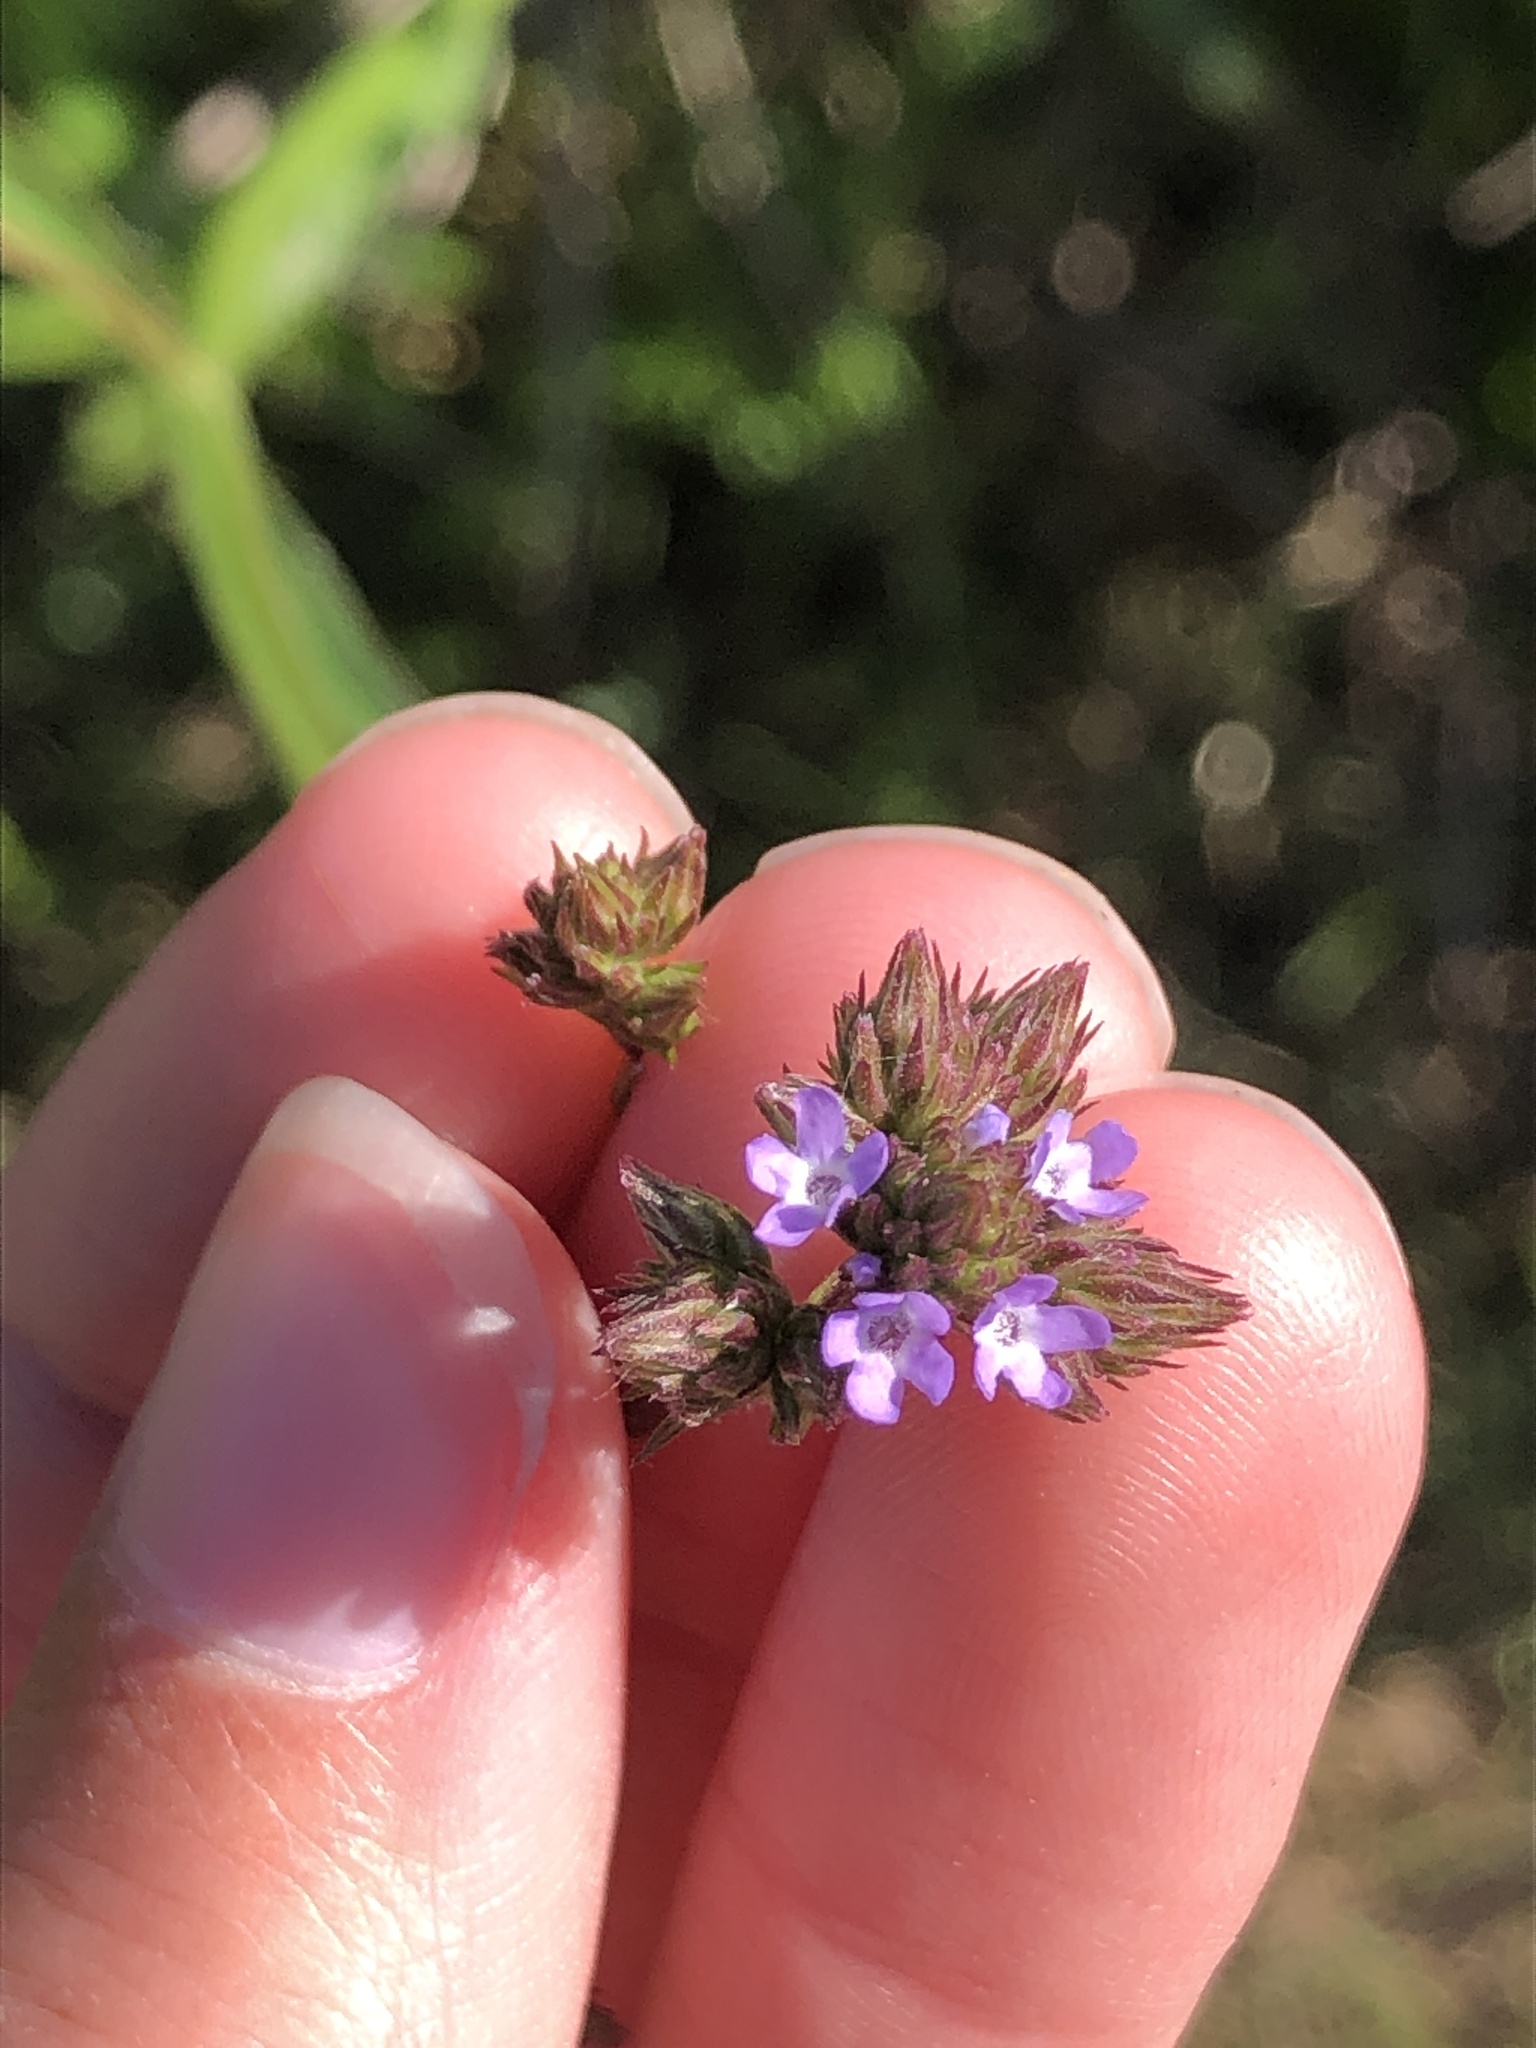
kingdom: Plantae
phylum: Tracheophyta
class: Magnoliopsida
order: Lamiales
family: Verbenaceae
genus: Verbena
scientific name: Verbena brasiliensis
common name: Brazilian vervain
